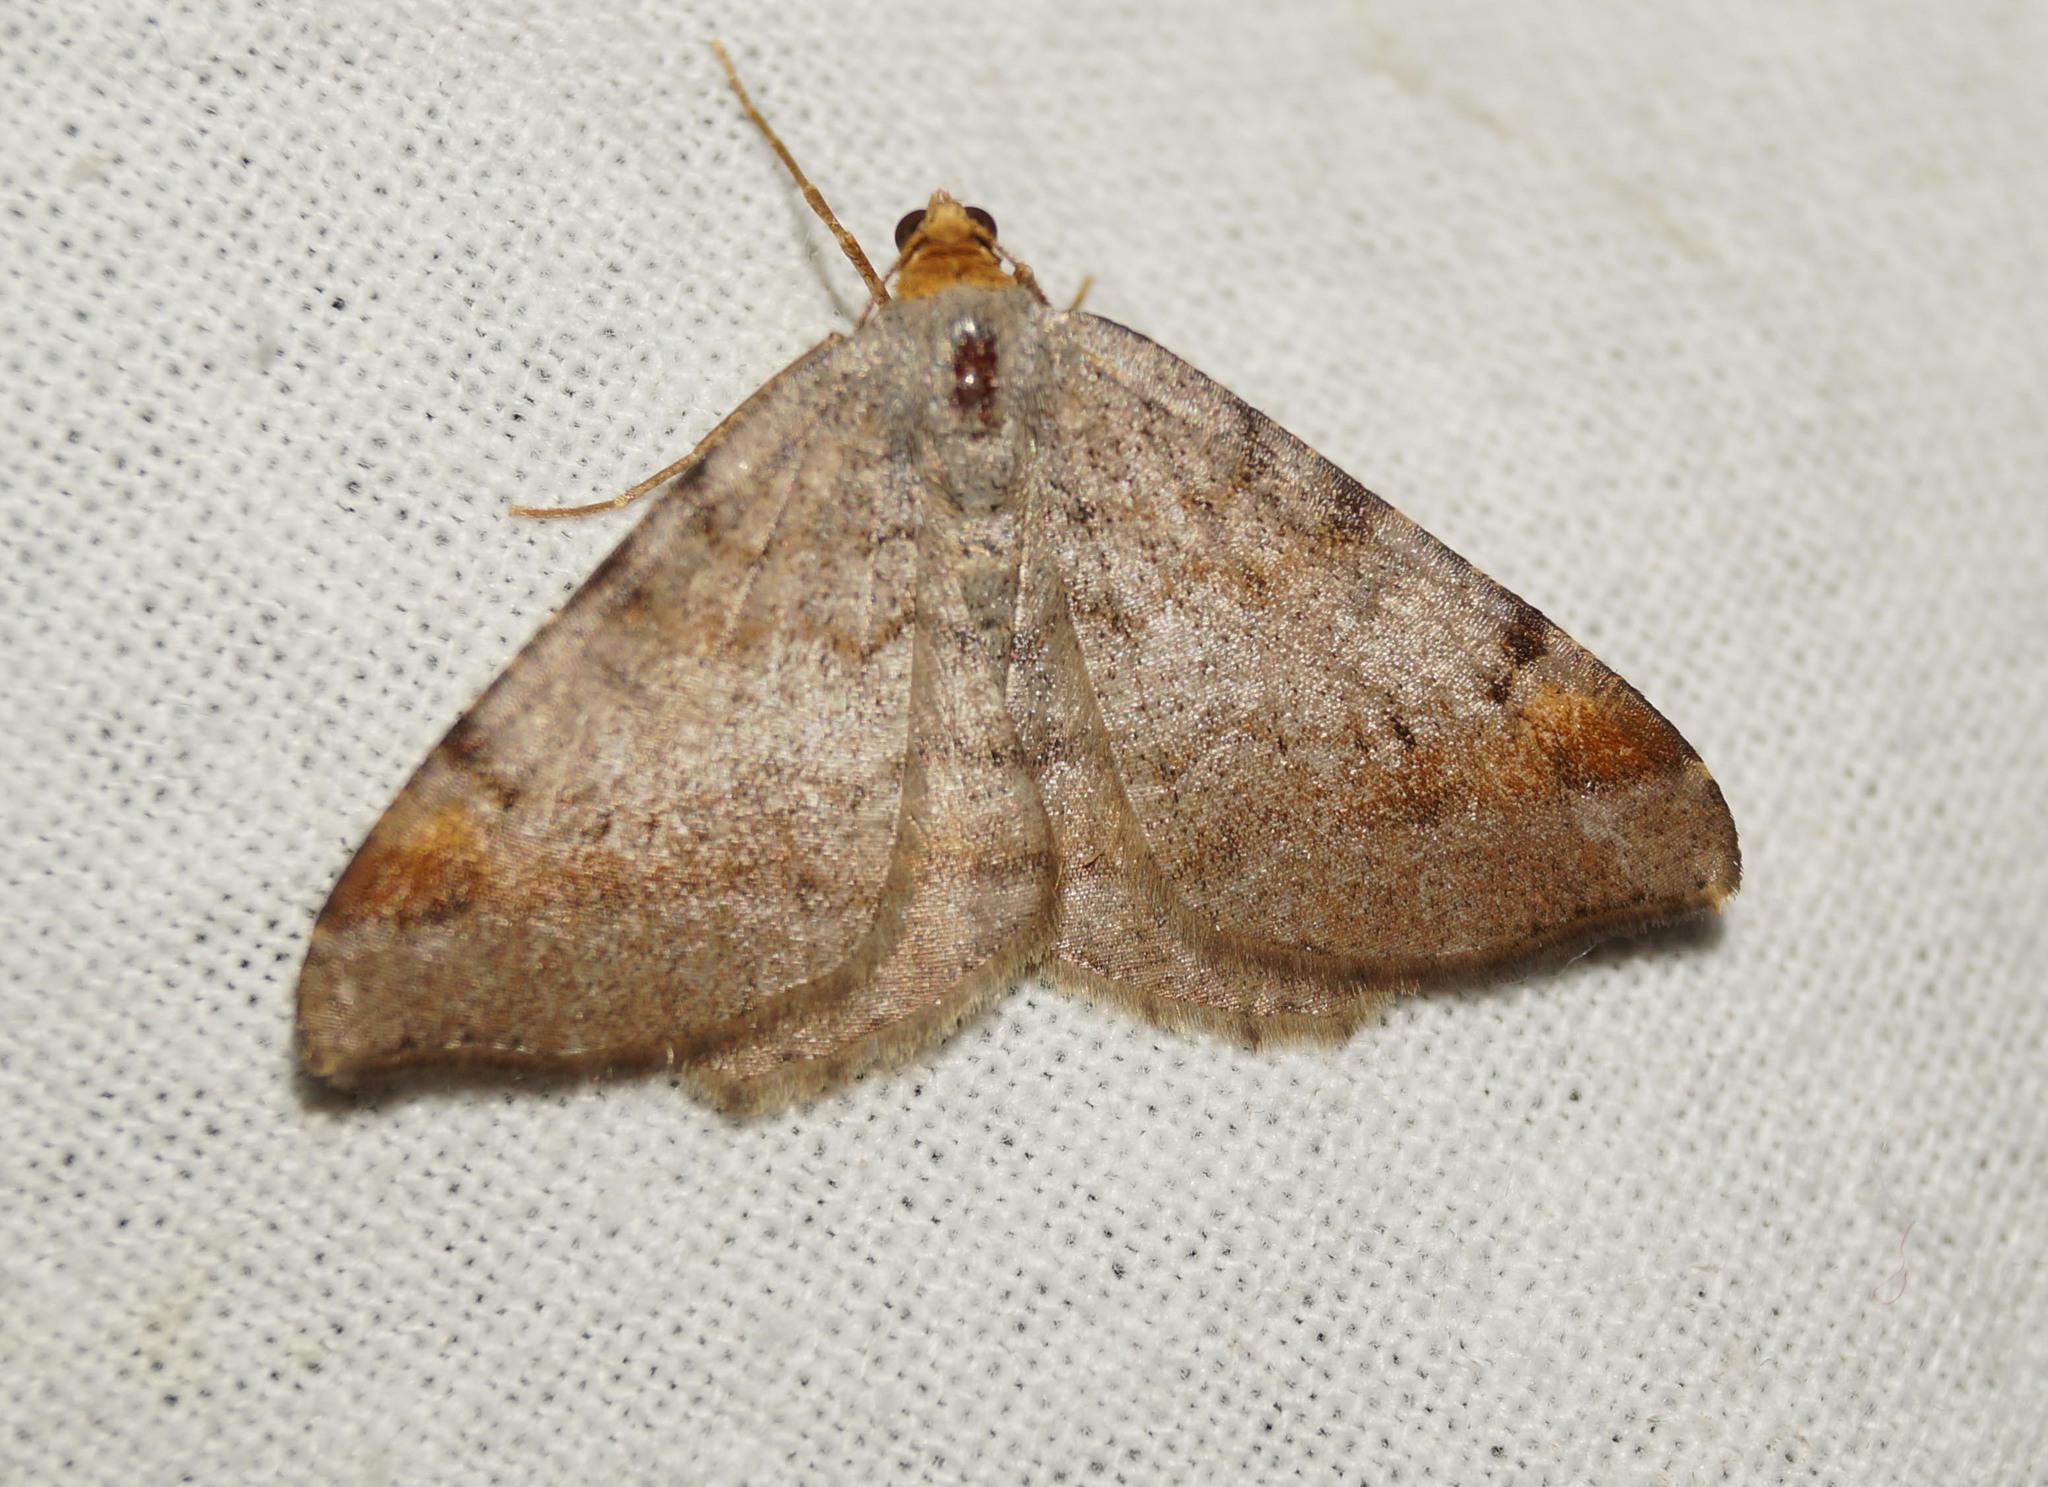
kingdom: Animalia
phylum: Arthropoda
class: Insecta
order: Lepidoptera
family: Geometridae
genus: Macaria
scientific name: Macaria liturata
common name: Tawny-barred angle
